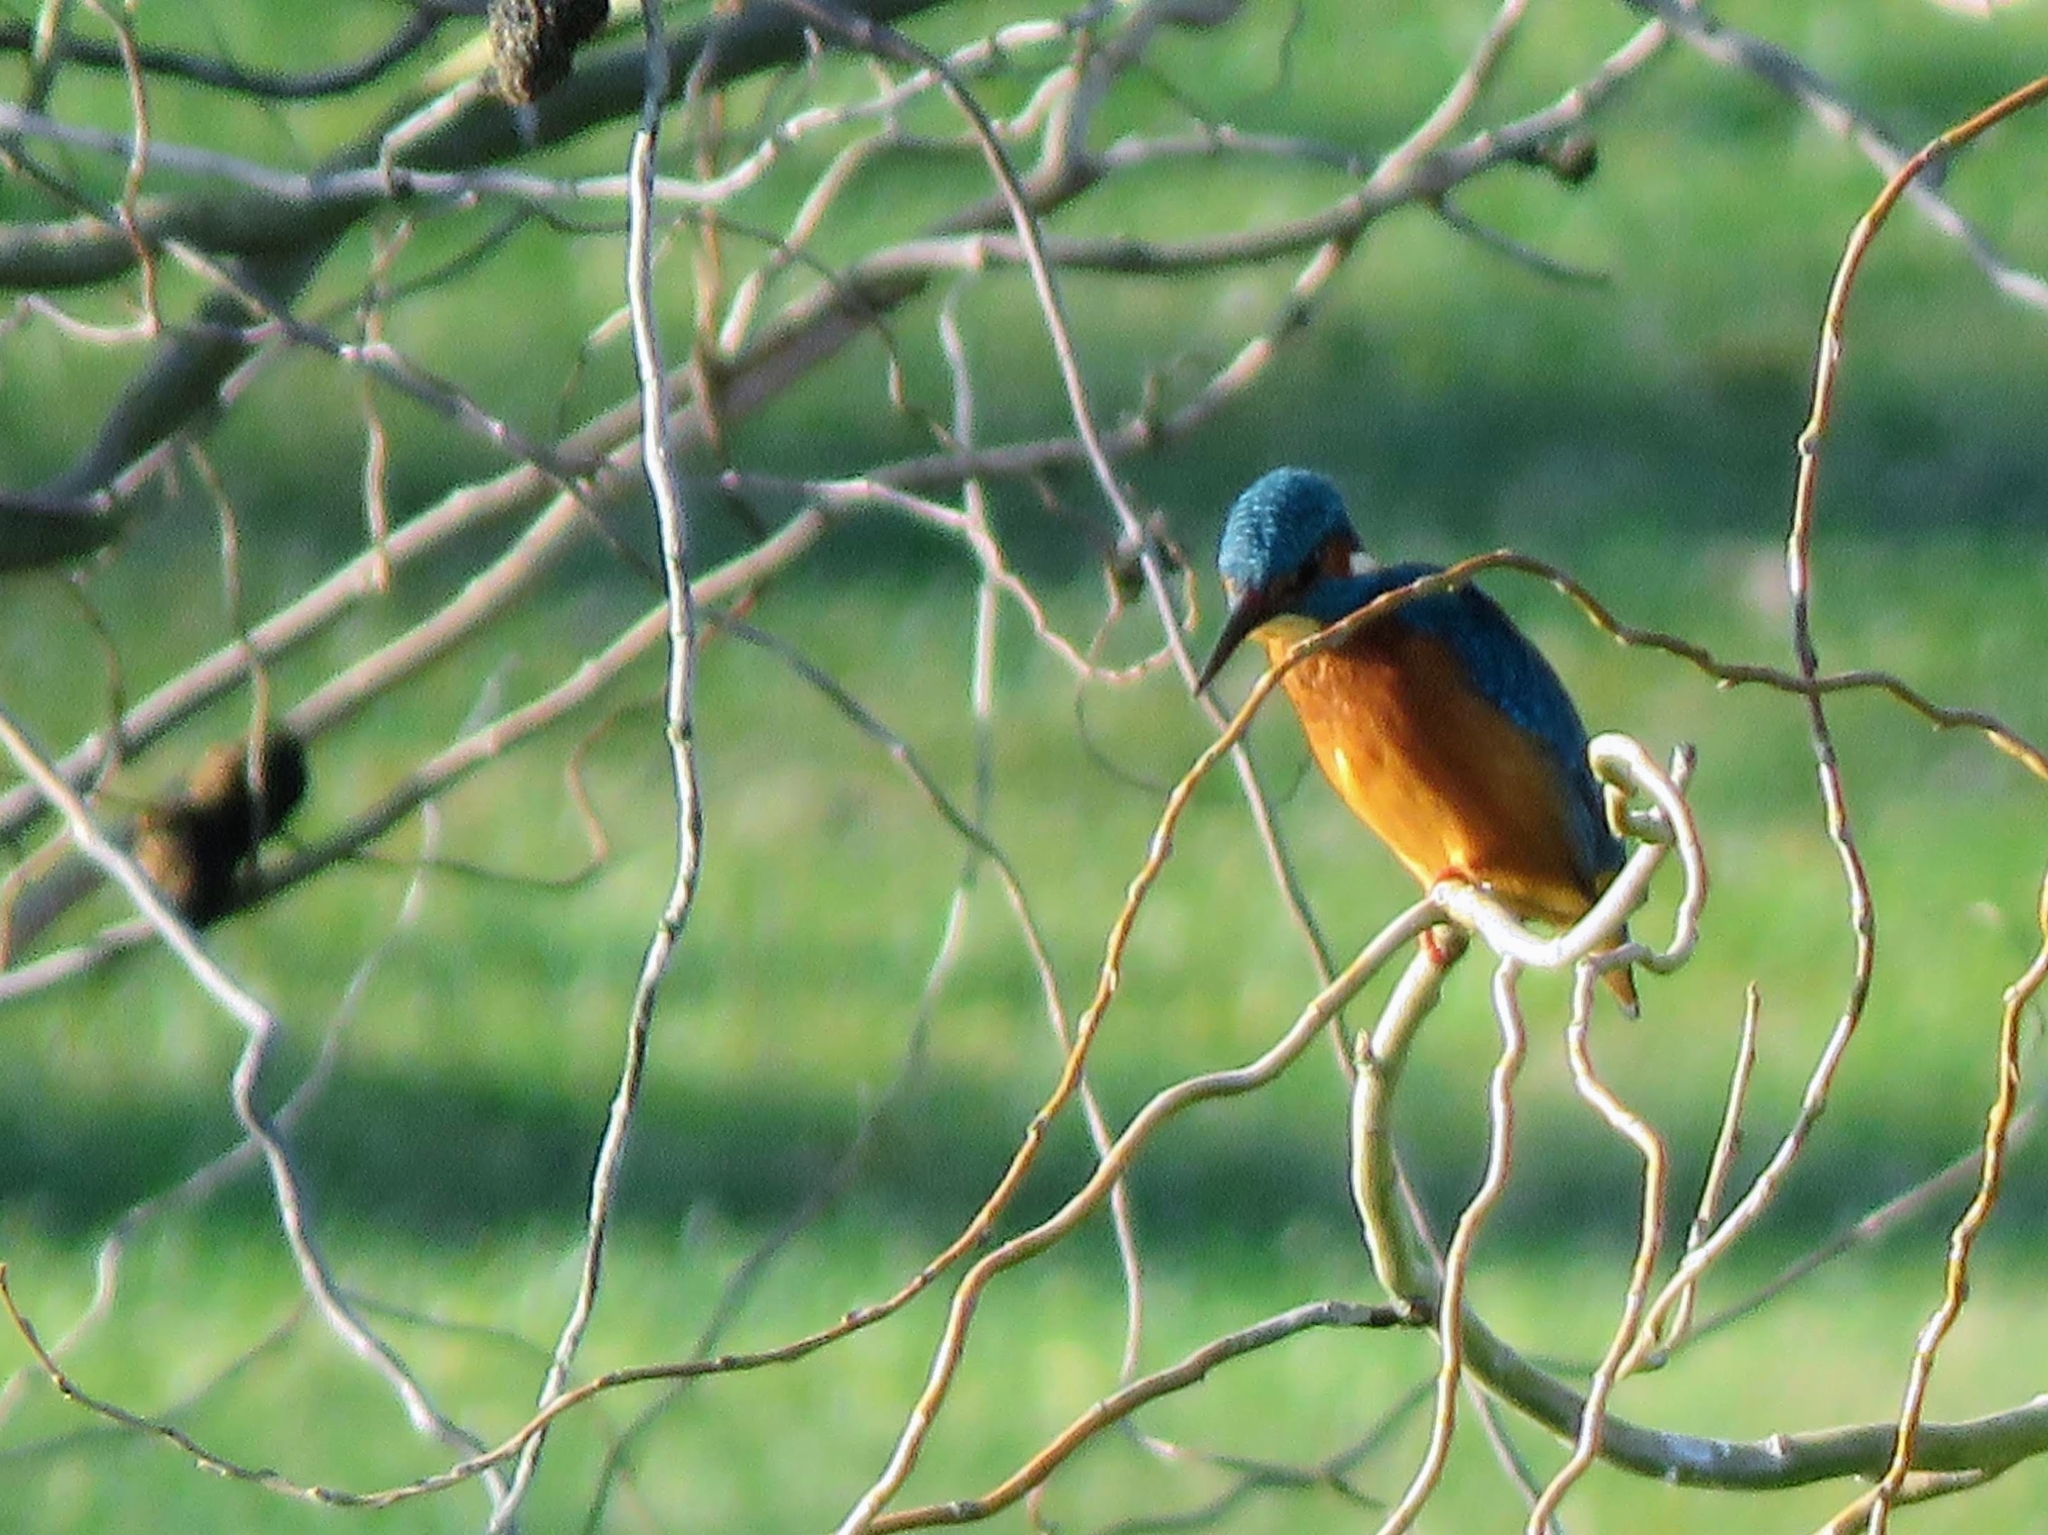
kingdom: Animalia
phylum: Chordata
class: Aves
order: Coraciiformes
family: Alcedinidae
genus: Alcedo
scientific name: Alcedo atthis
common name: Common kingfisher
